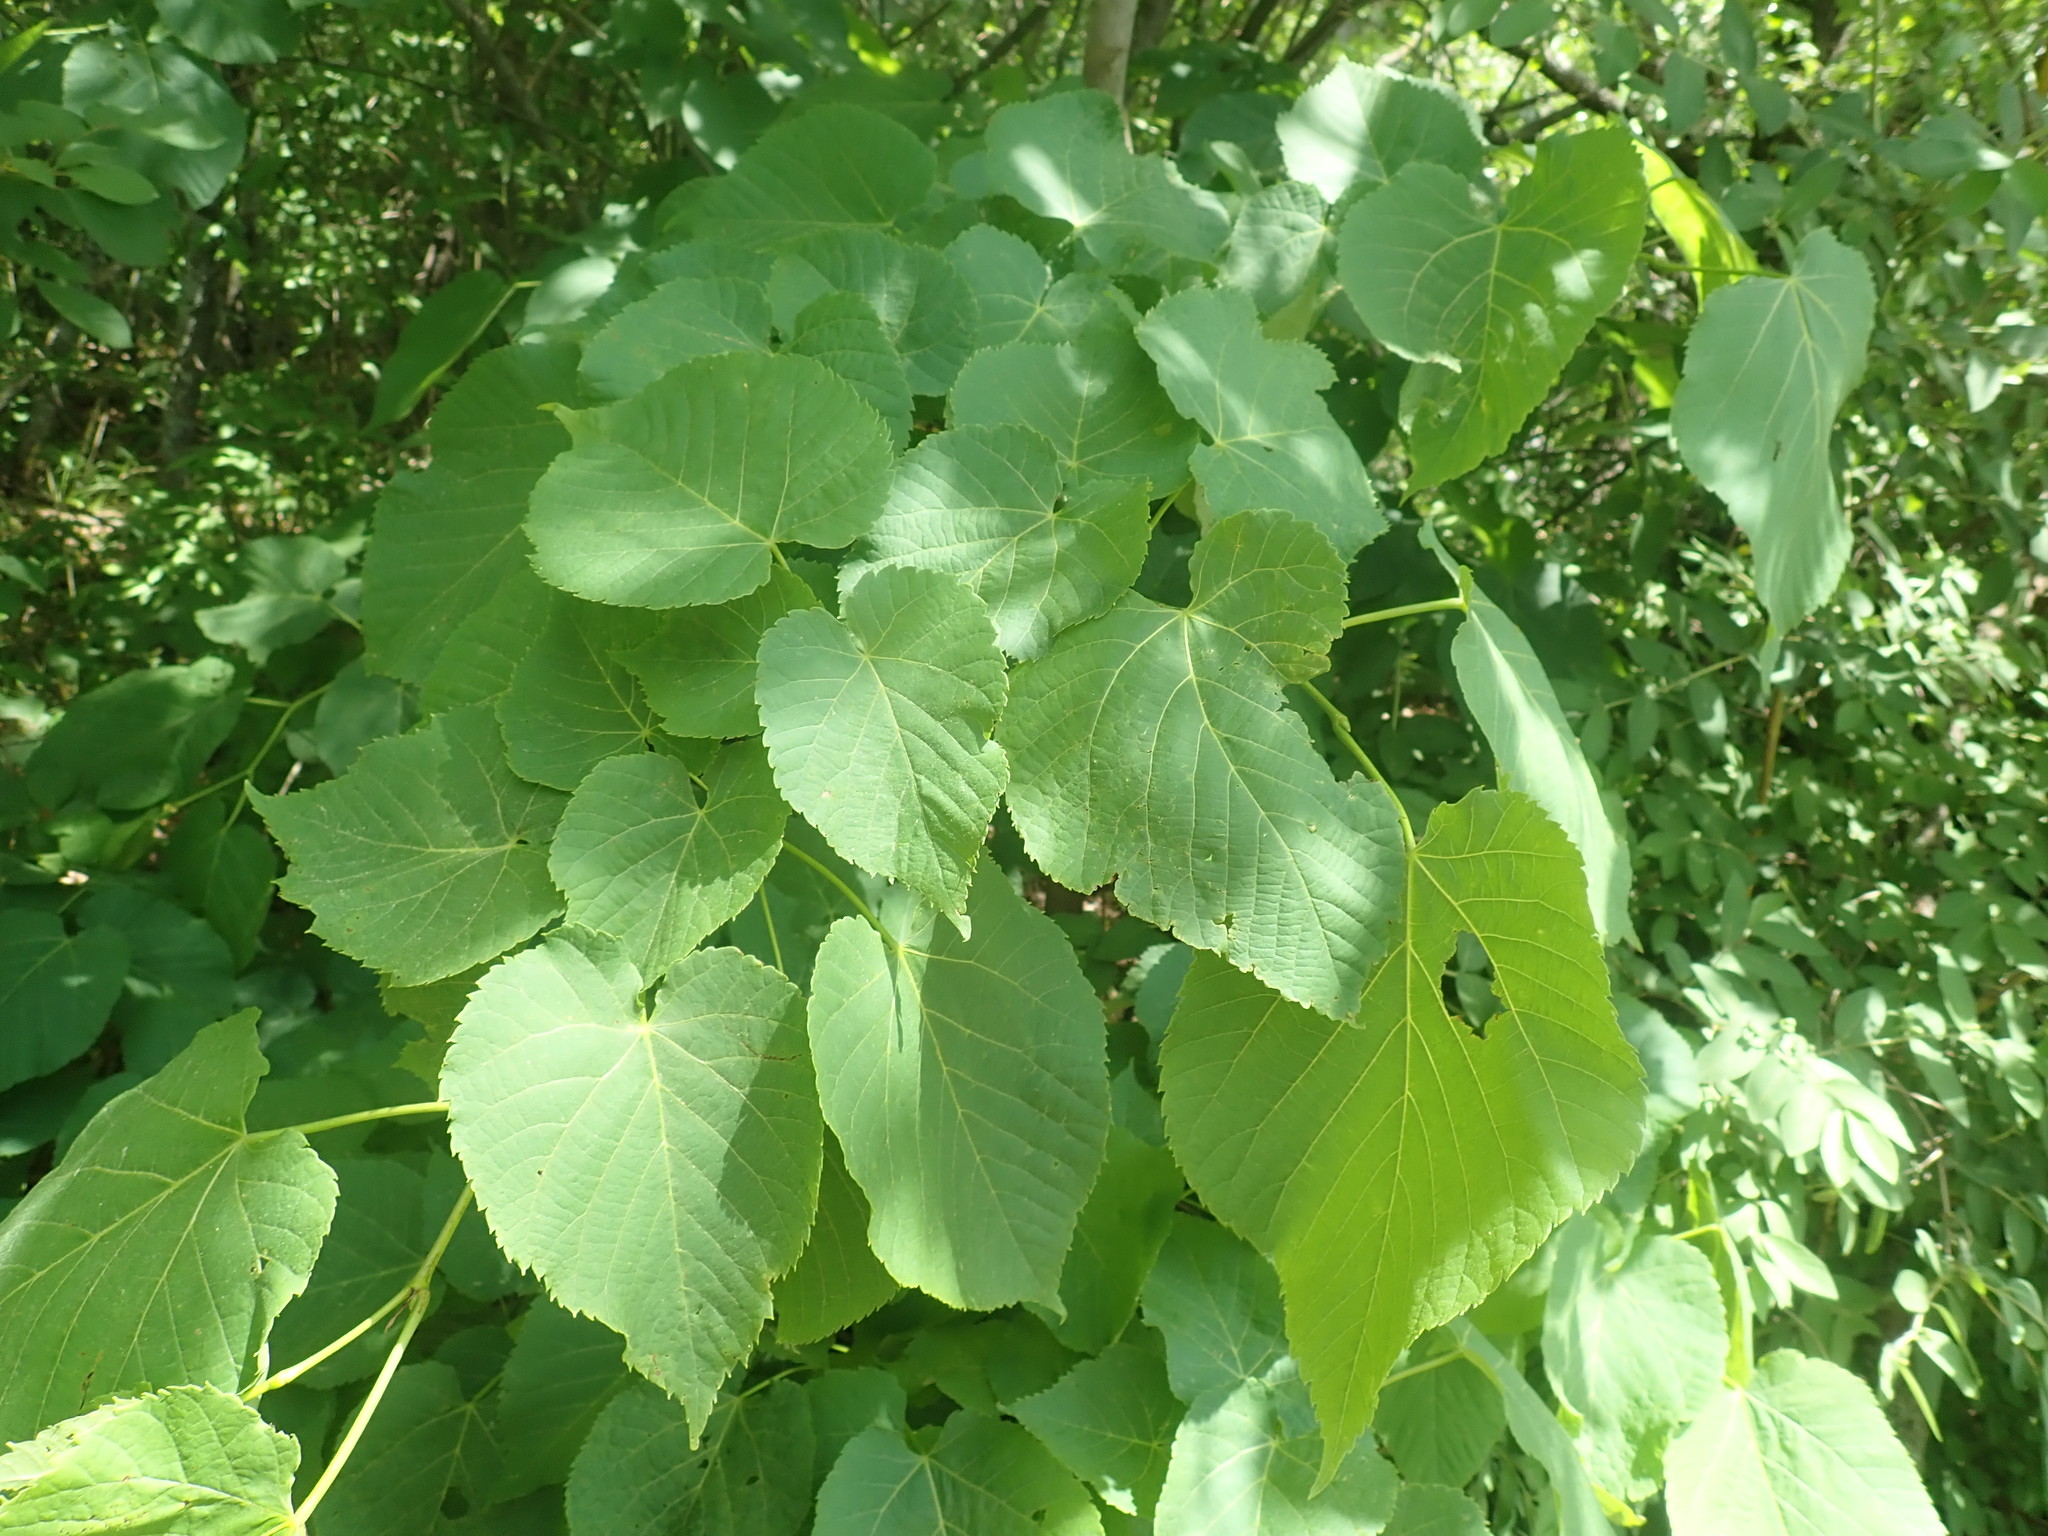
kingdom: Plantae
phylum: Tracheophyta
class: Magnoliopsida
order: Malvales
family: Malvaceae
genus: Tilia
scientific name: Tilia americana
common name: Basswood
